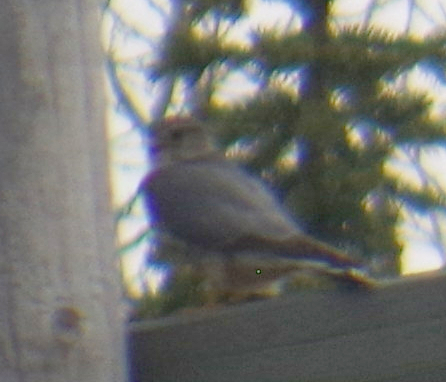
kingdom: Animalia
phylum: Chordata
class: Aves
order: Falconiformes
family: Falconidae
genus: Falco
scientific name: Falco columbarius
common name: Merlin
